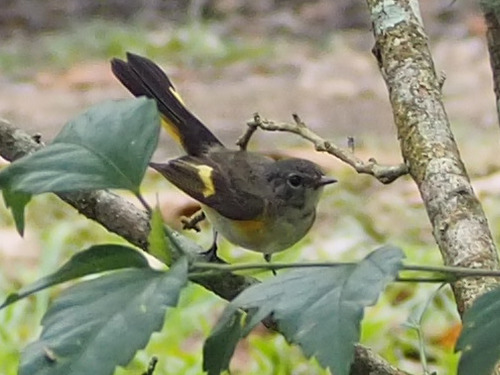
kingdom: Animalia
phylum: Chordata
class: Aves
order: Passeriformes
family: Parulidae
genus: Setophaga
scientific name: Setophaga ruticilla
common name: American redstart
